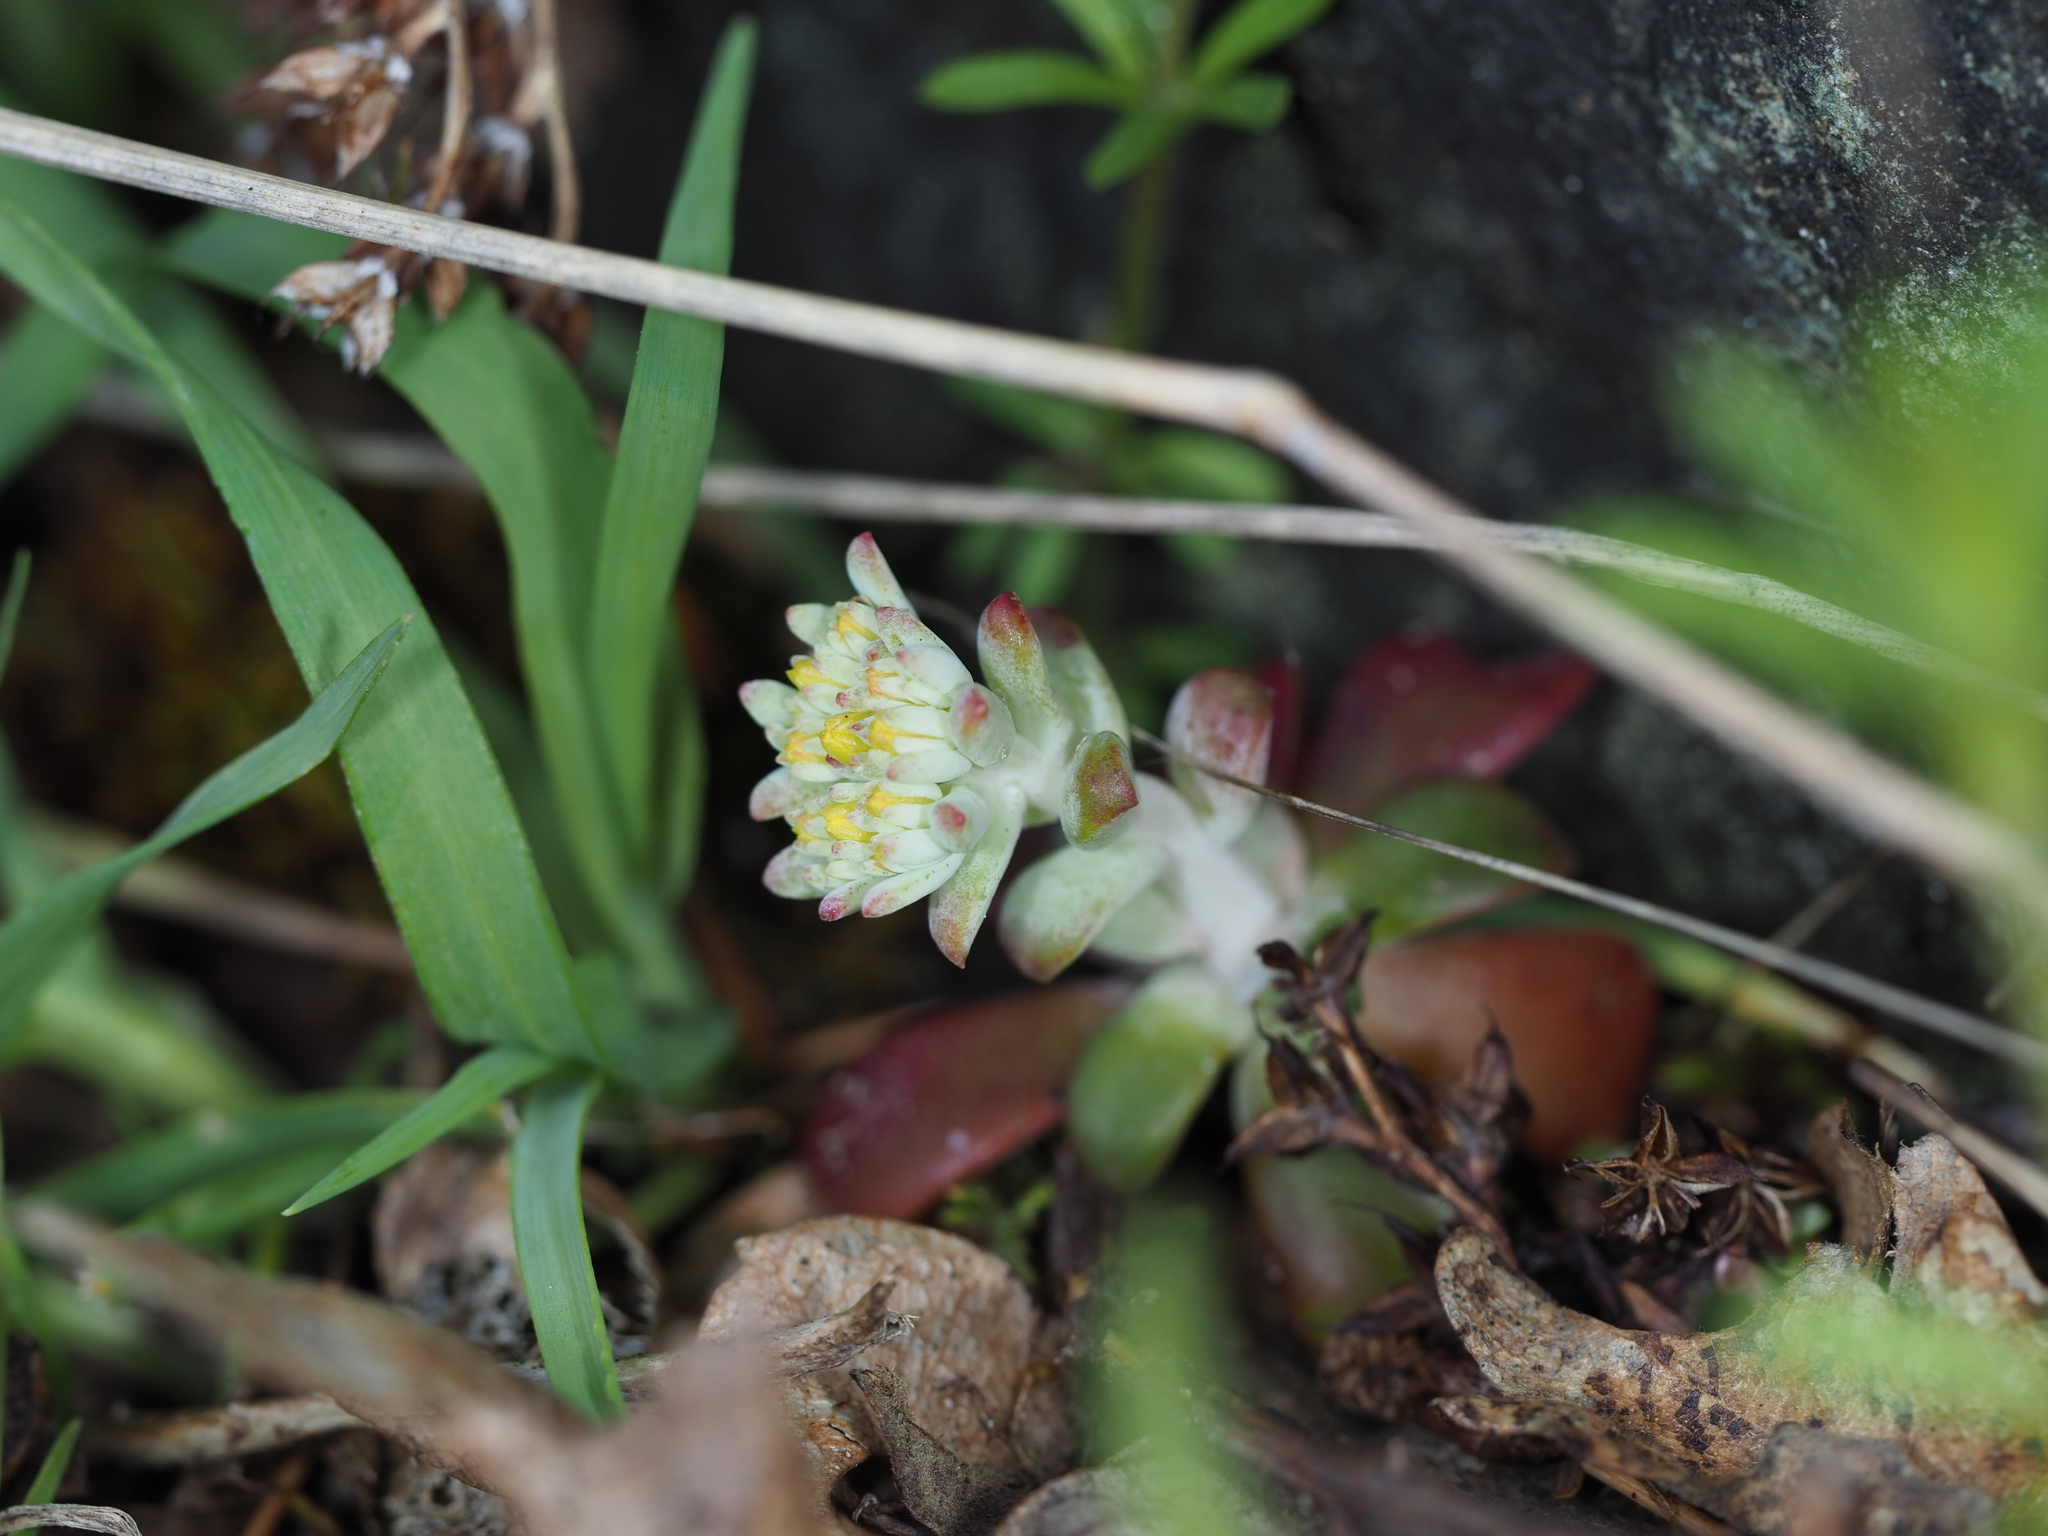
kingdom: Plantae
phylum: Tracheophyta
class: Magnoliopsida
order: Saxifragales
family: Crassulaceae
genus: Sedum
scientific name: Sedum spathulifolium
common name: Colorado stonecrop
